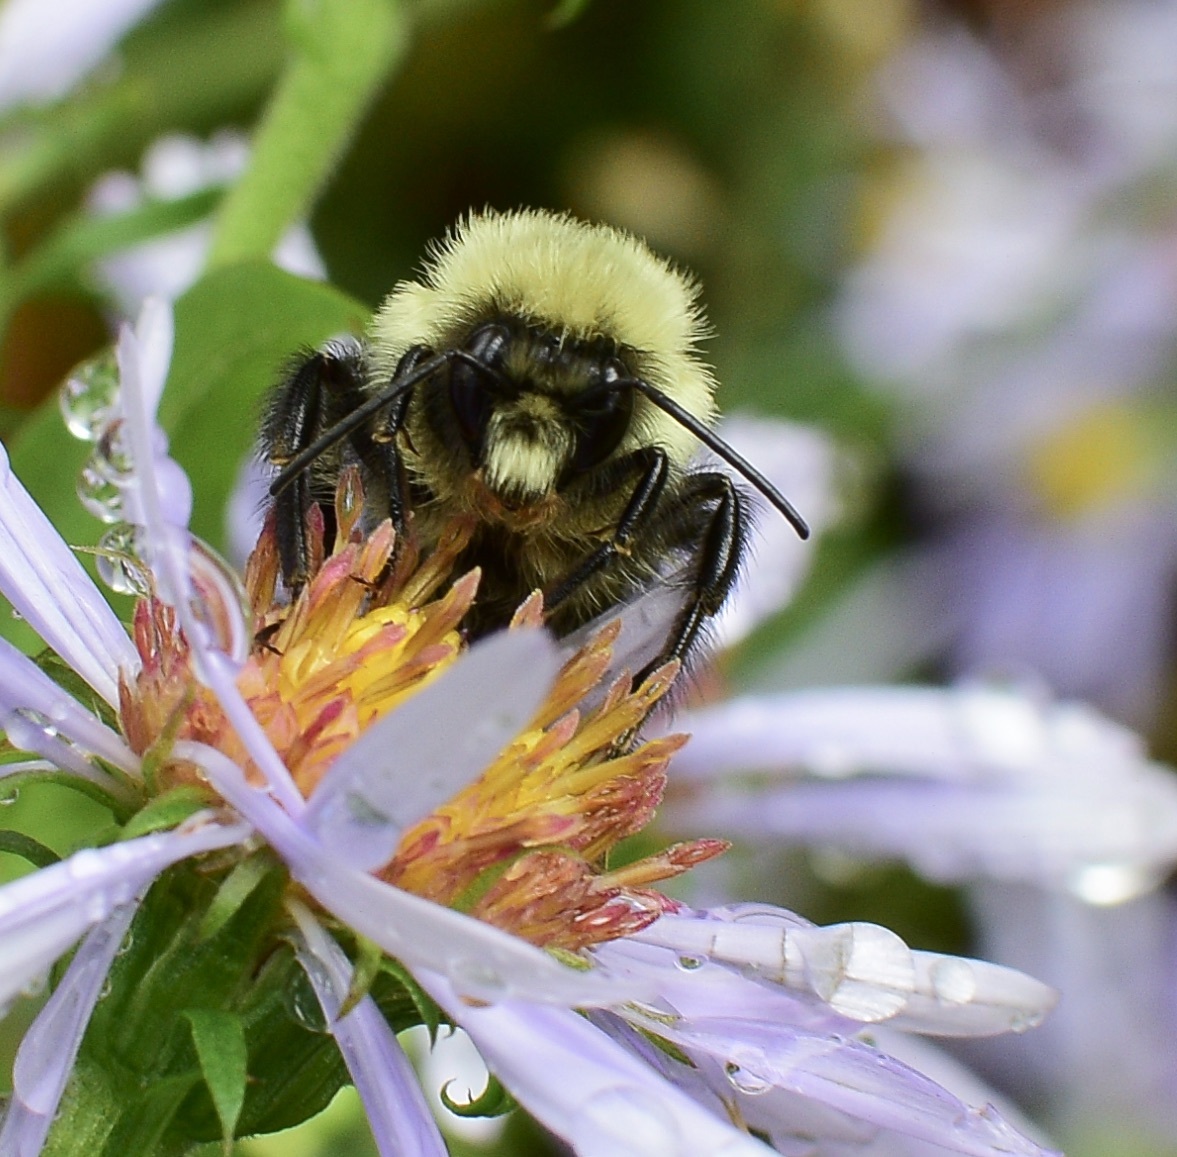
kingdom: Animalia
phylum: Arthropoda
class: Insecta
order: Hymenoptera
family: Apidae
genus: Bombus
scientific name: Bombus impatiens
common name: Common eastern bumble bee
